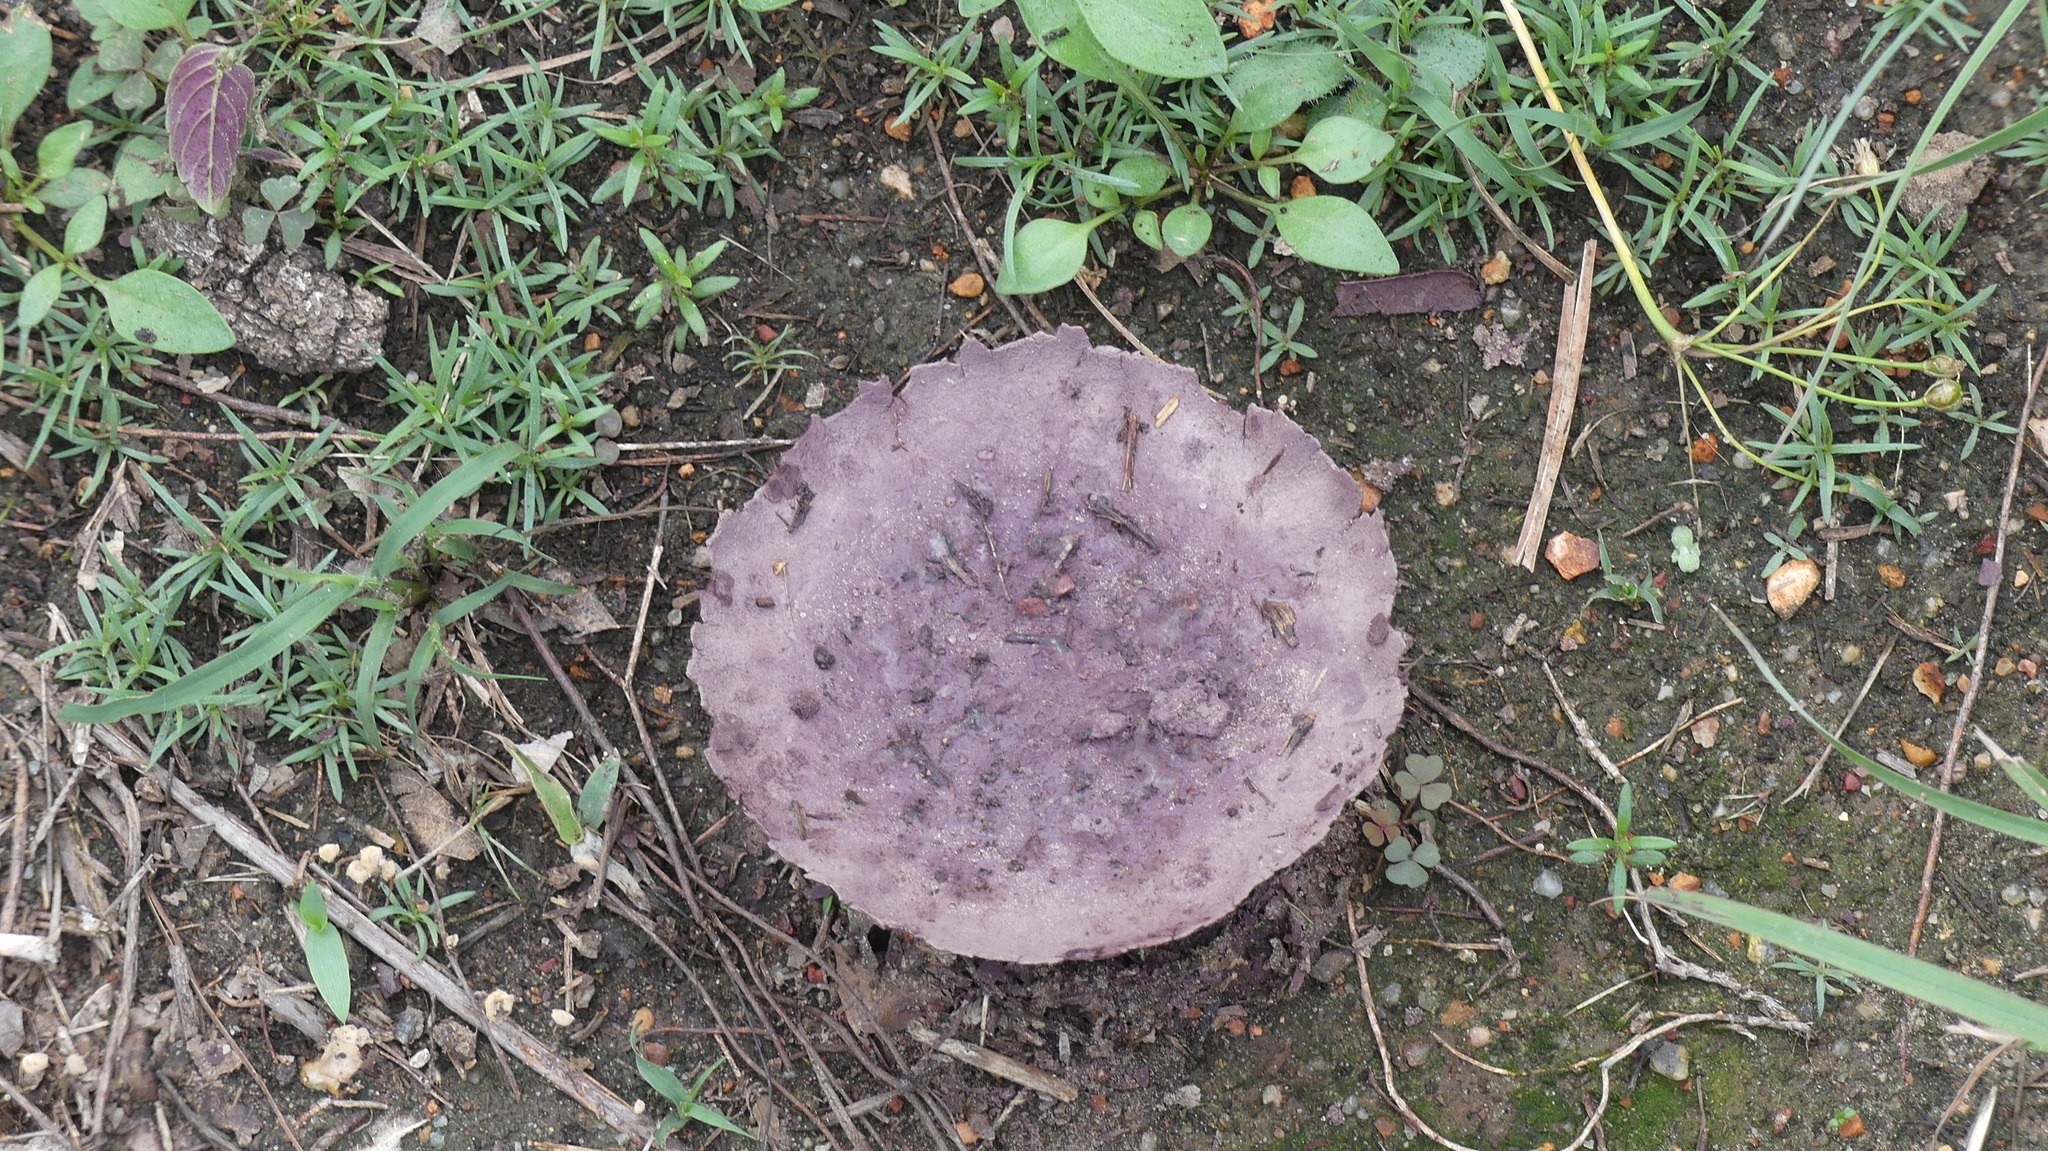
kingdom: Fungi
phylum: Basidiomycota
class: Agaricomycetes
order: Agaricales
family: Lycoperdaceae
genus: Calvatia
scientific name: Calvatia cyathiformis
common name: Purple-spored puffball
